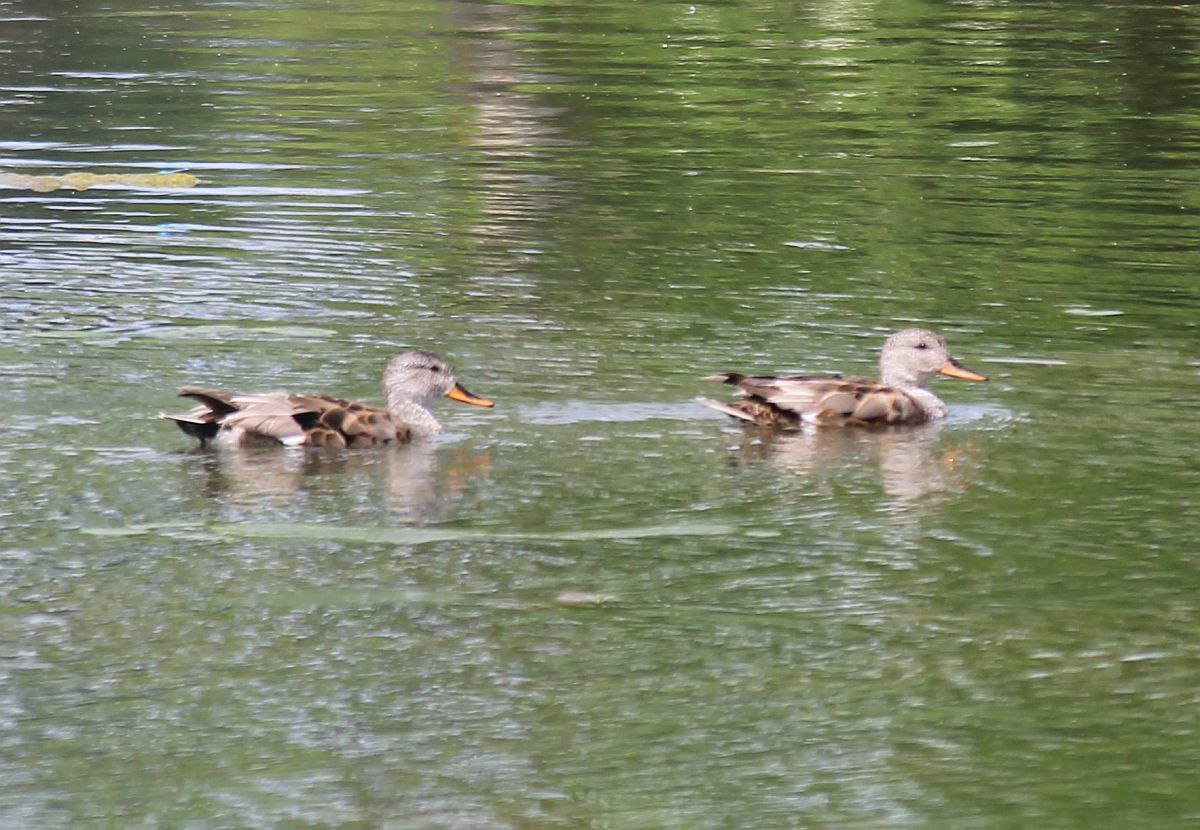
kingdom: Animalia
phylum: Chordata
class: Aves
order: Anseriformes
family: Anatidae
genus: Mareca
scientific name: Mareca strepera
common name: Gadwall
